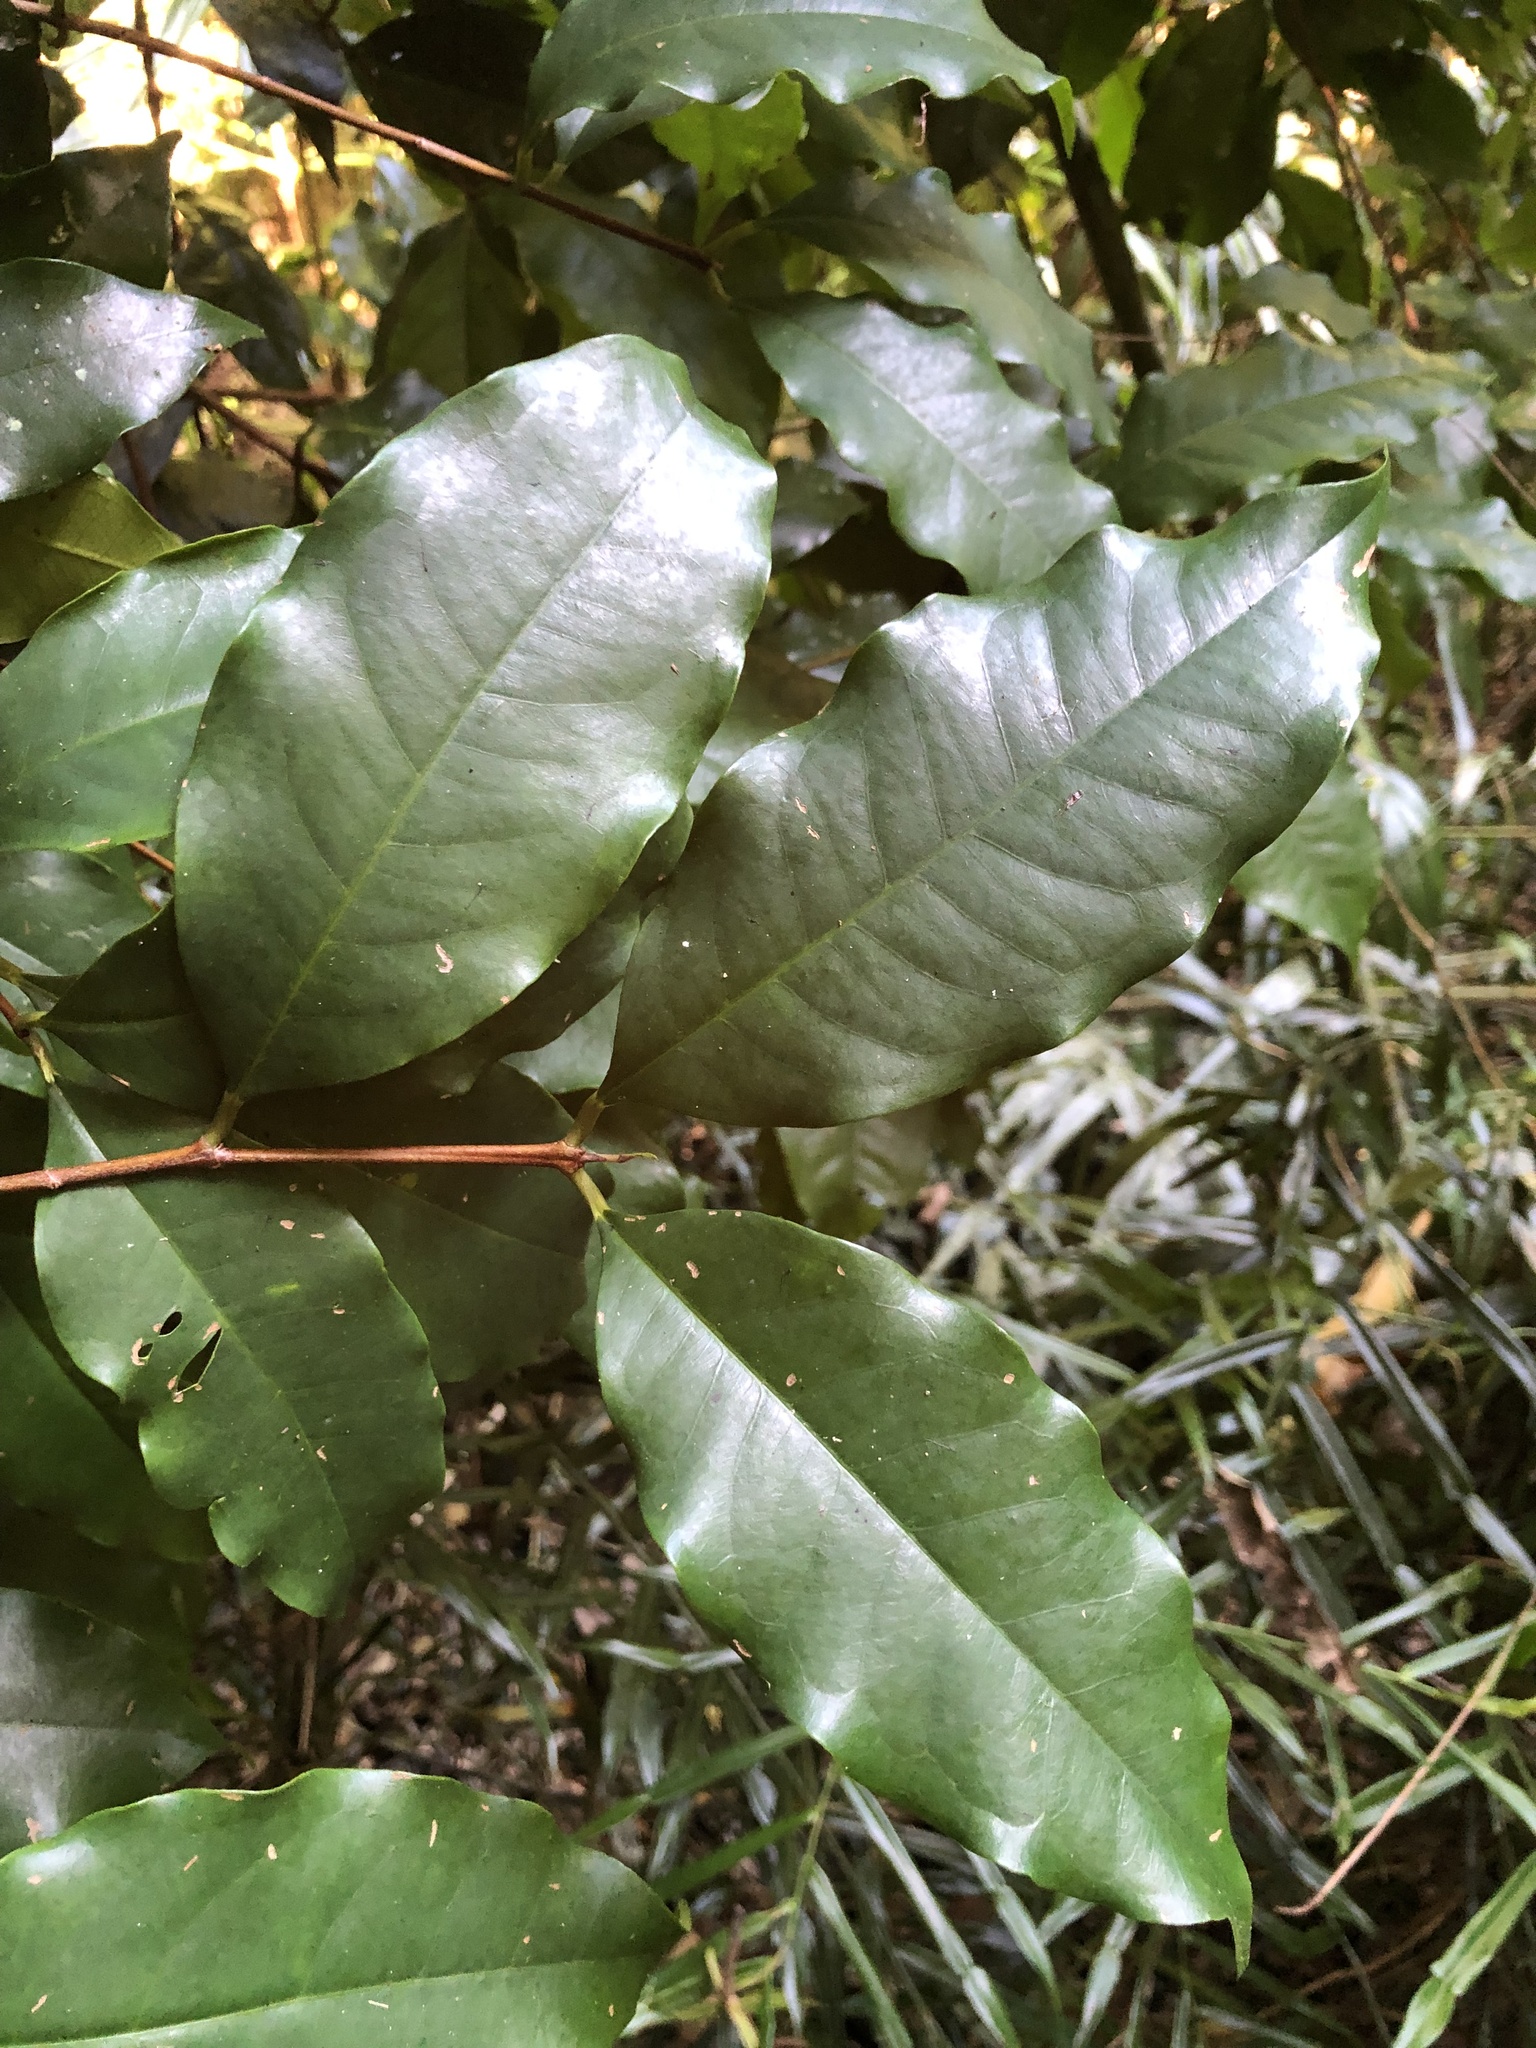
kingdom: Plantae
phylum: Tracheophyta
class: Magnoliopsida
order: Myrtales
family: Myrtaceae
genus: Syzygium
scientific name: Syzygium hodgkinsoniae
